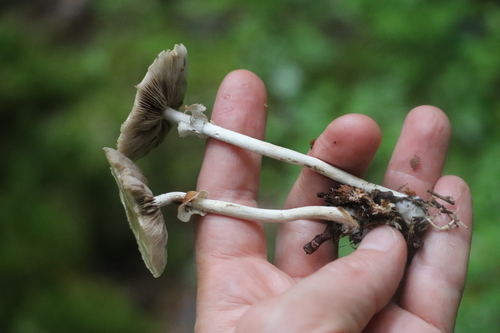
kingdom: Fungi
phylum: Basidiomycota
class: Agaricomycetes
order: Agaricales
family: Strophariaceae
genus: Agrocybe
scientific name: Agrocybe praecox
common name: Spring fieldcap
